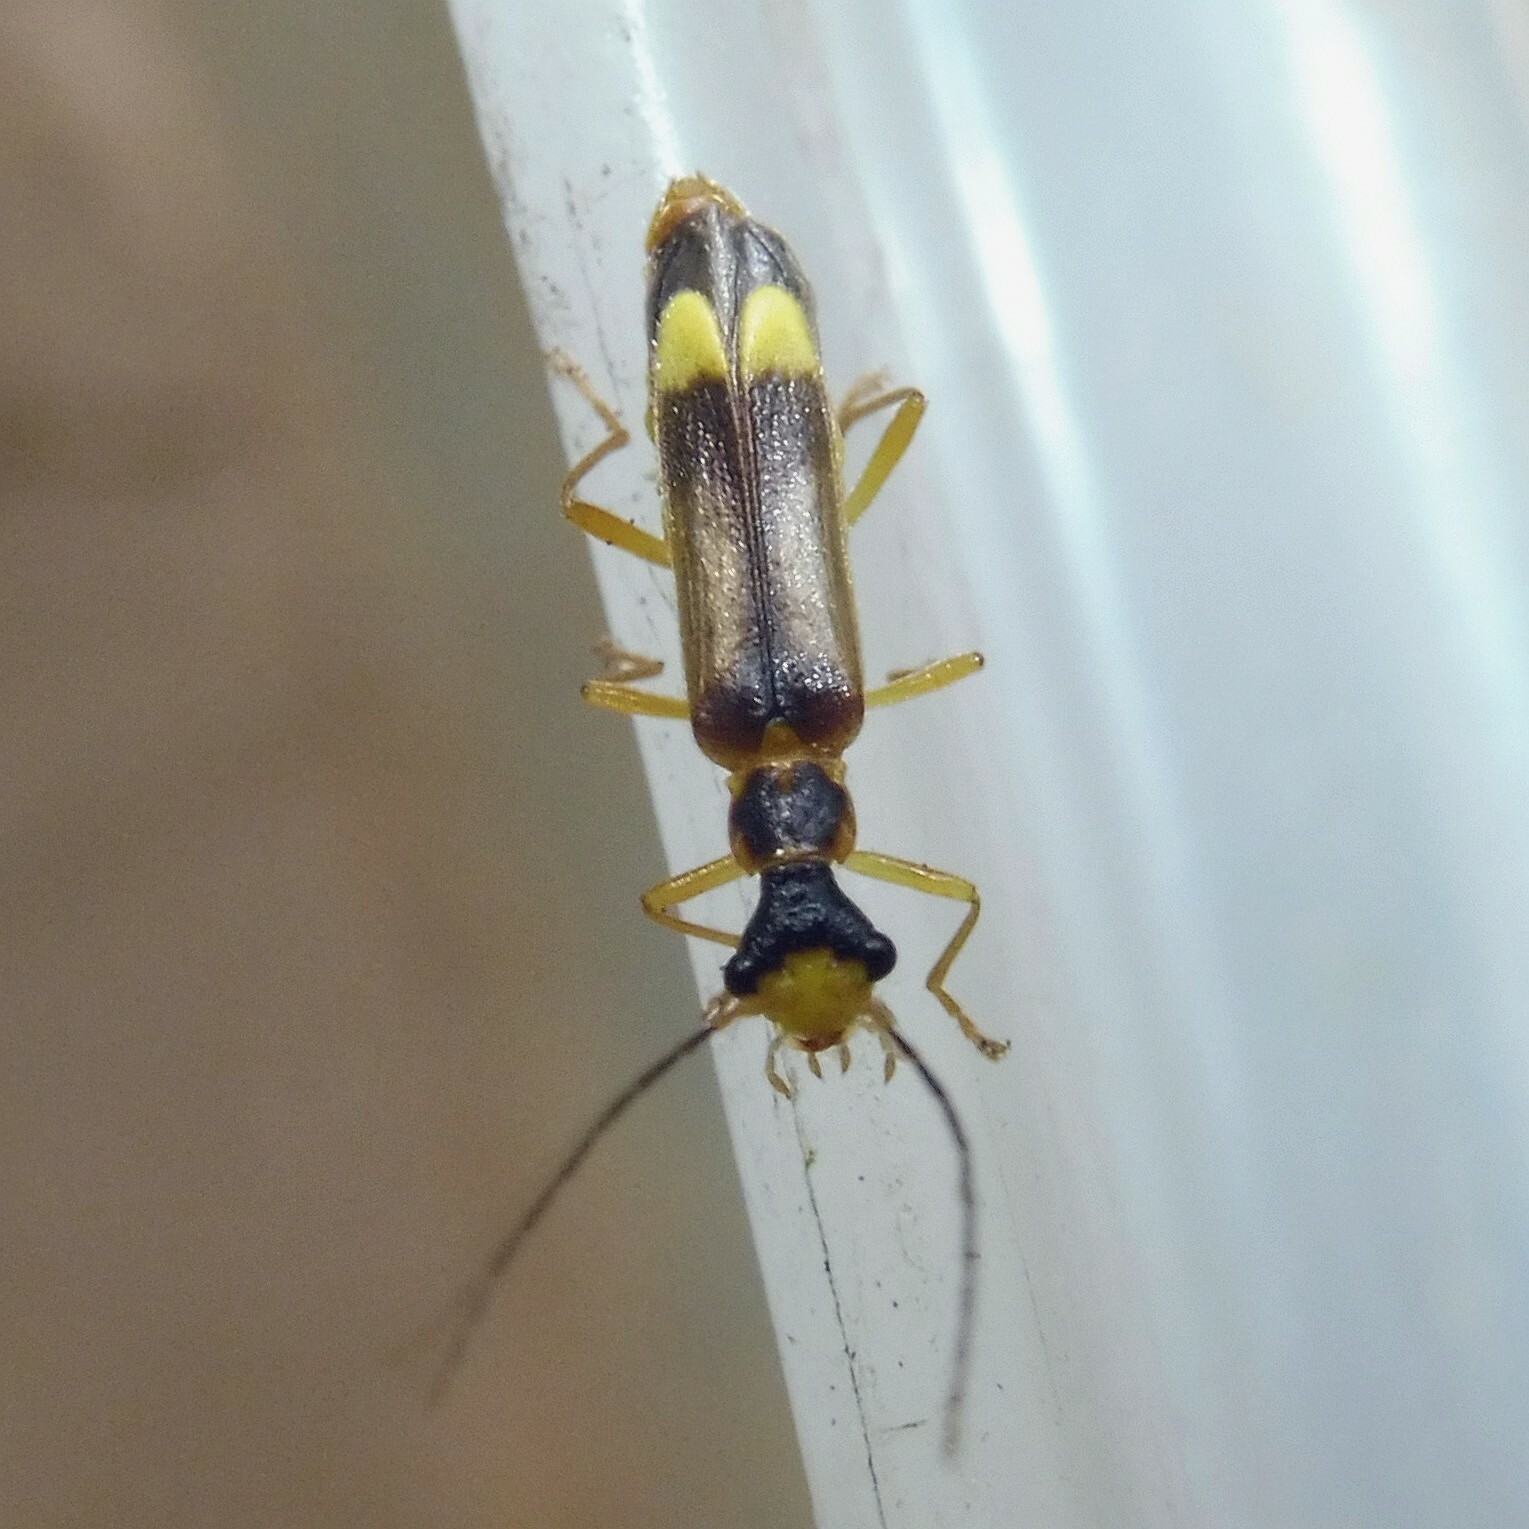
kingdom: Animalia
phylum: Arthropoda
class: Insecta
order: Coleoptera
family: Cantharidae
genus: Malthinus
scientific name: Malthinus flaveolus
